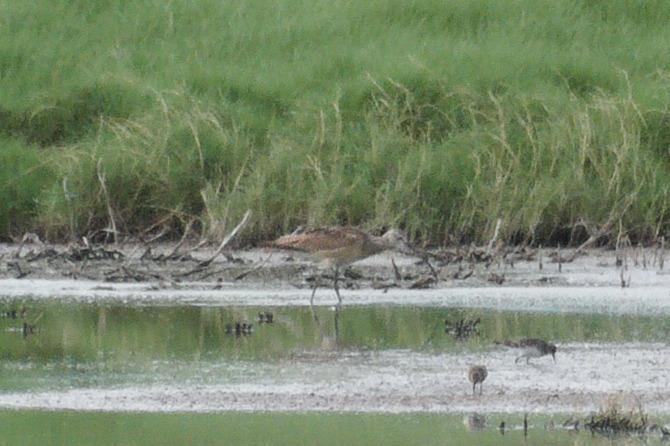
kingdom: Animalia
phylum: Chordata
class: Aves
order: Charadriiformes
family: Scolopacidae
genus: Numenius
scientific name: Numenius americanus
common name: Long-billed curlew
